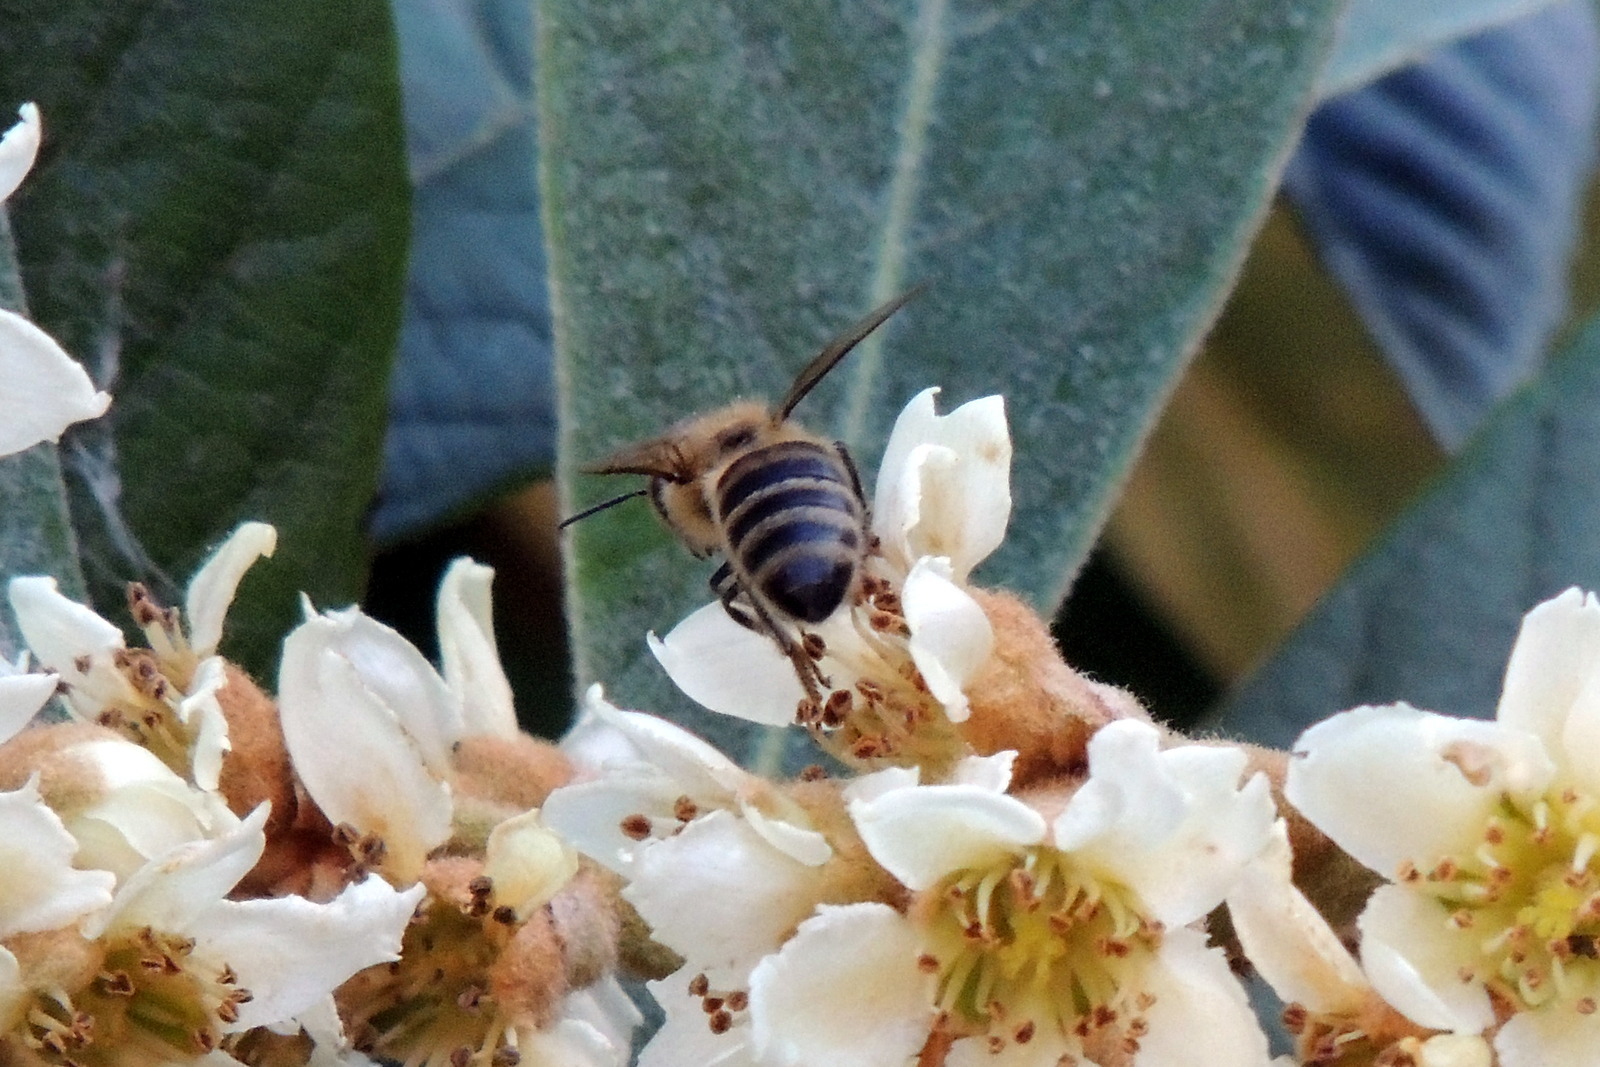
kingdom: Animalia
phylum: Arthropoda
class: Insecta
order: Hymenoptera
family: Apidae
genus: Apis
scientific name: Apis mellifera
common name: Honey bee
